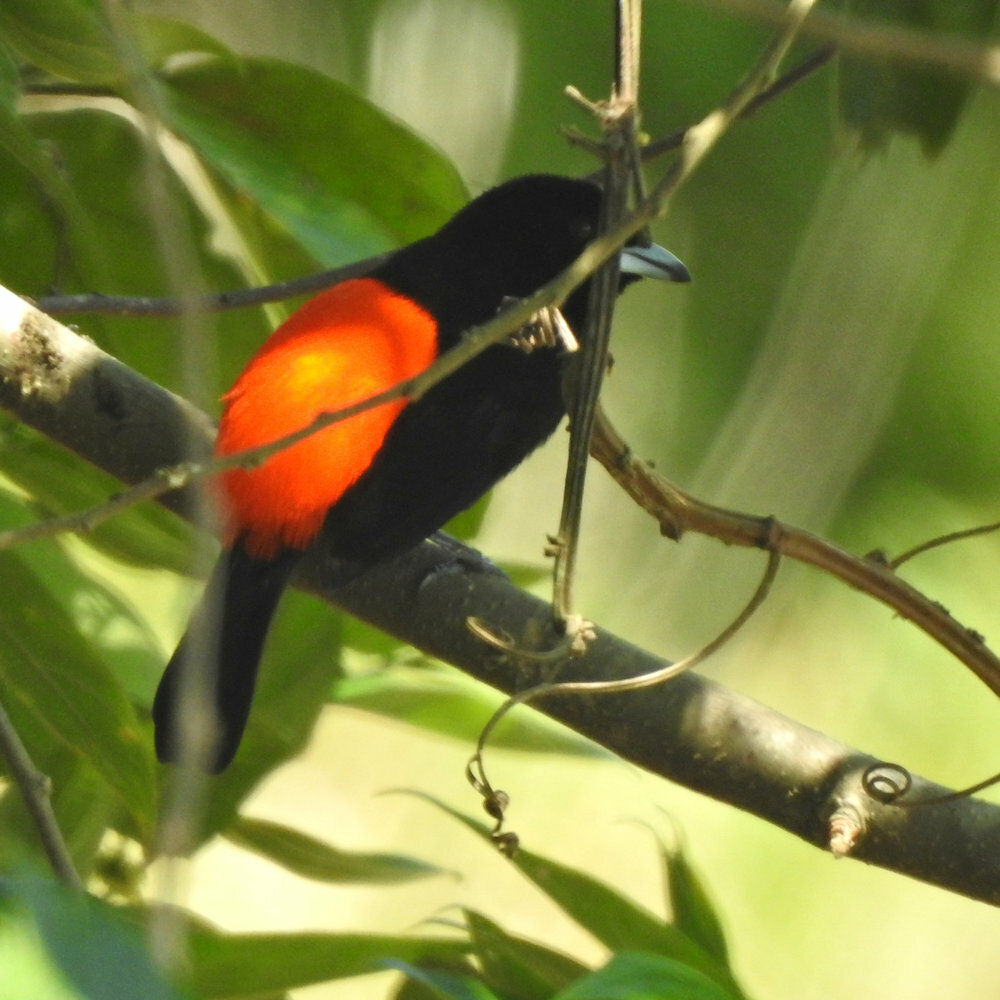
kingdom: Animalia
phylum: Chordata
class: Aves
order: Passeriformes
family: Thraupidae
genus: Ramphocelus
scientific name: Ramphocelus passerinii
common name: Passerini's tanager
